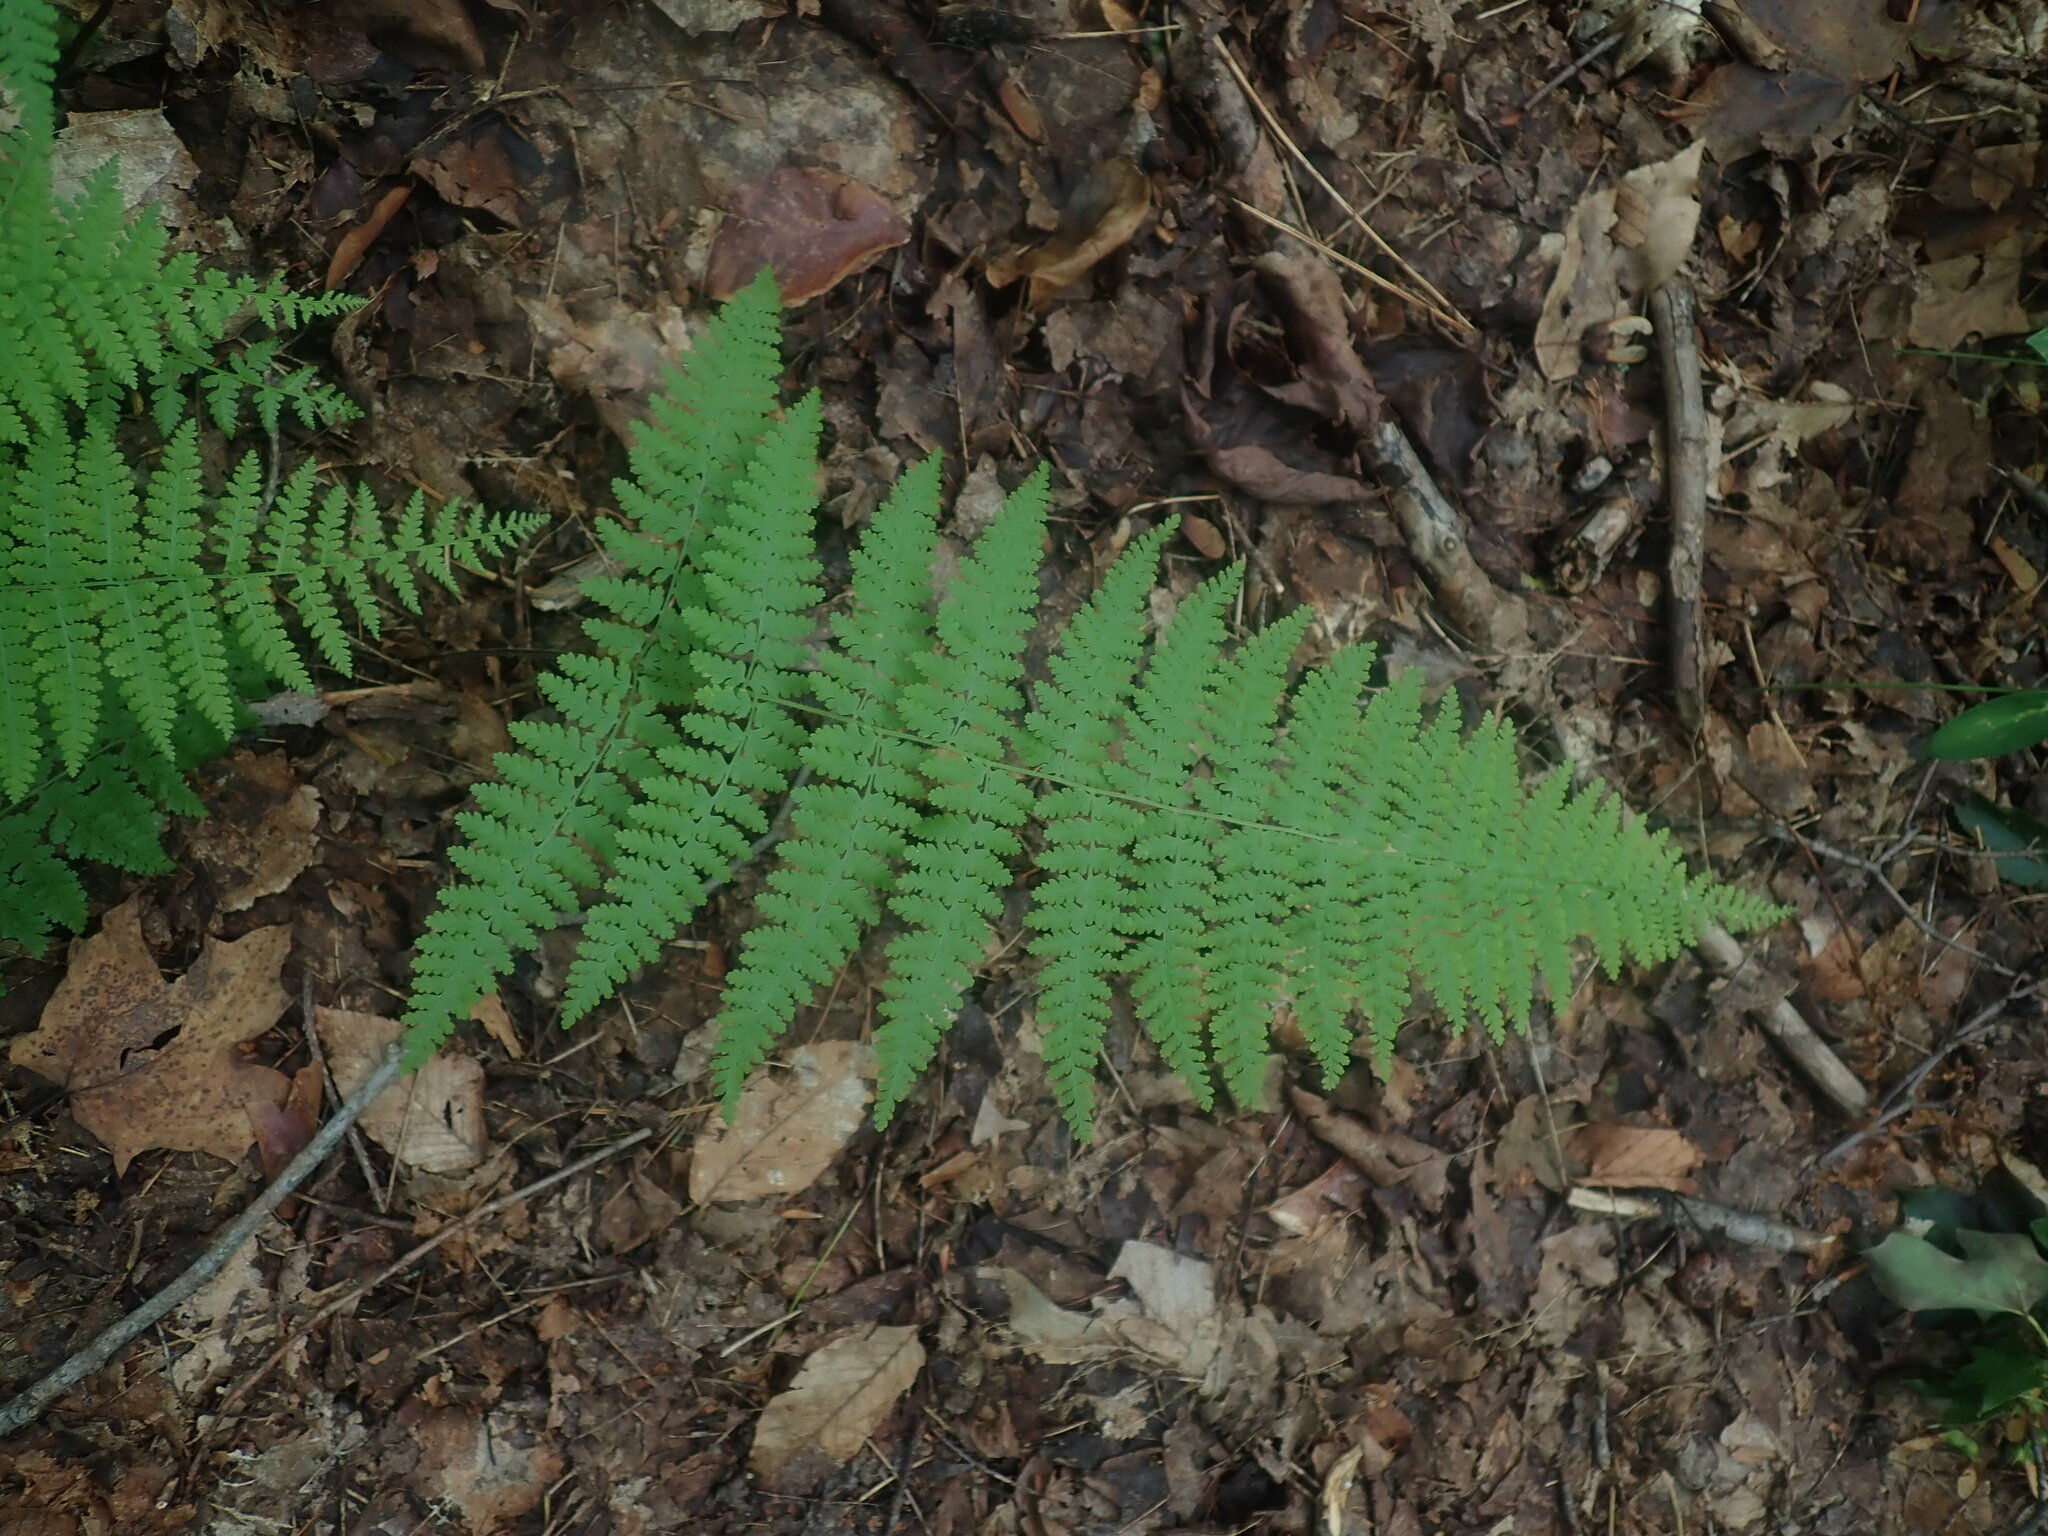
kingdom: Plantae
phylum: Tracheophyta
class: Polypodiopsida
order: Polypodiales
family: Dennstaedtiaceae
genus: Sitobolium
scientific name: Sitobolium punctilobum
